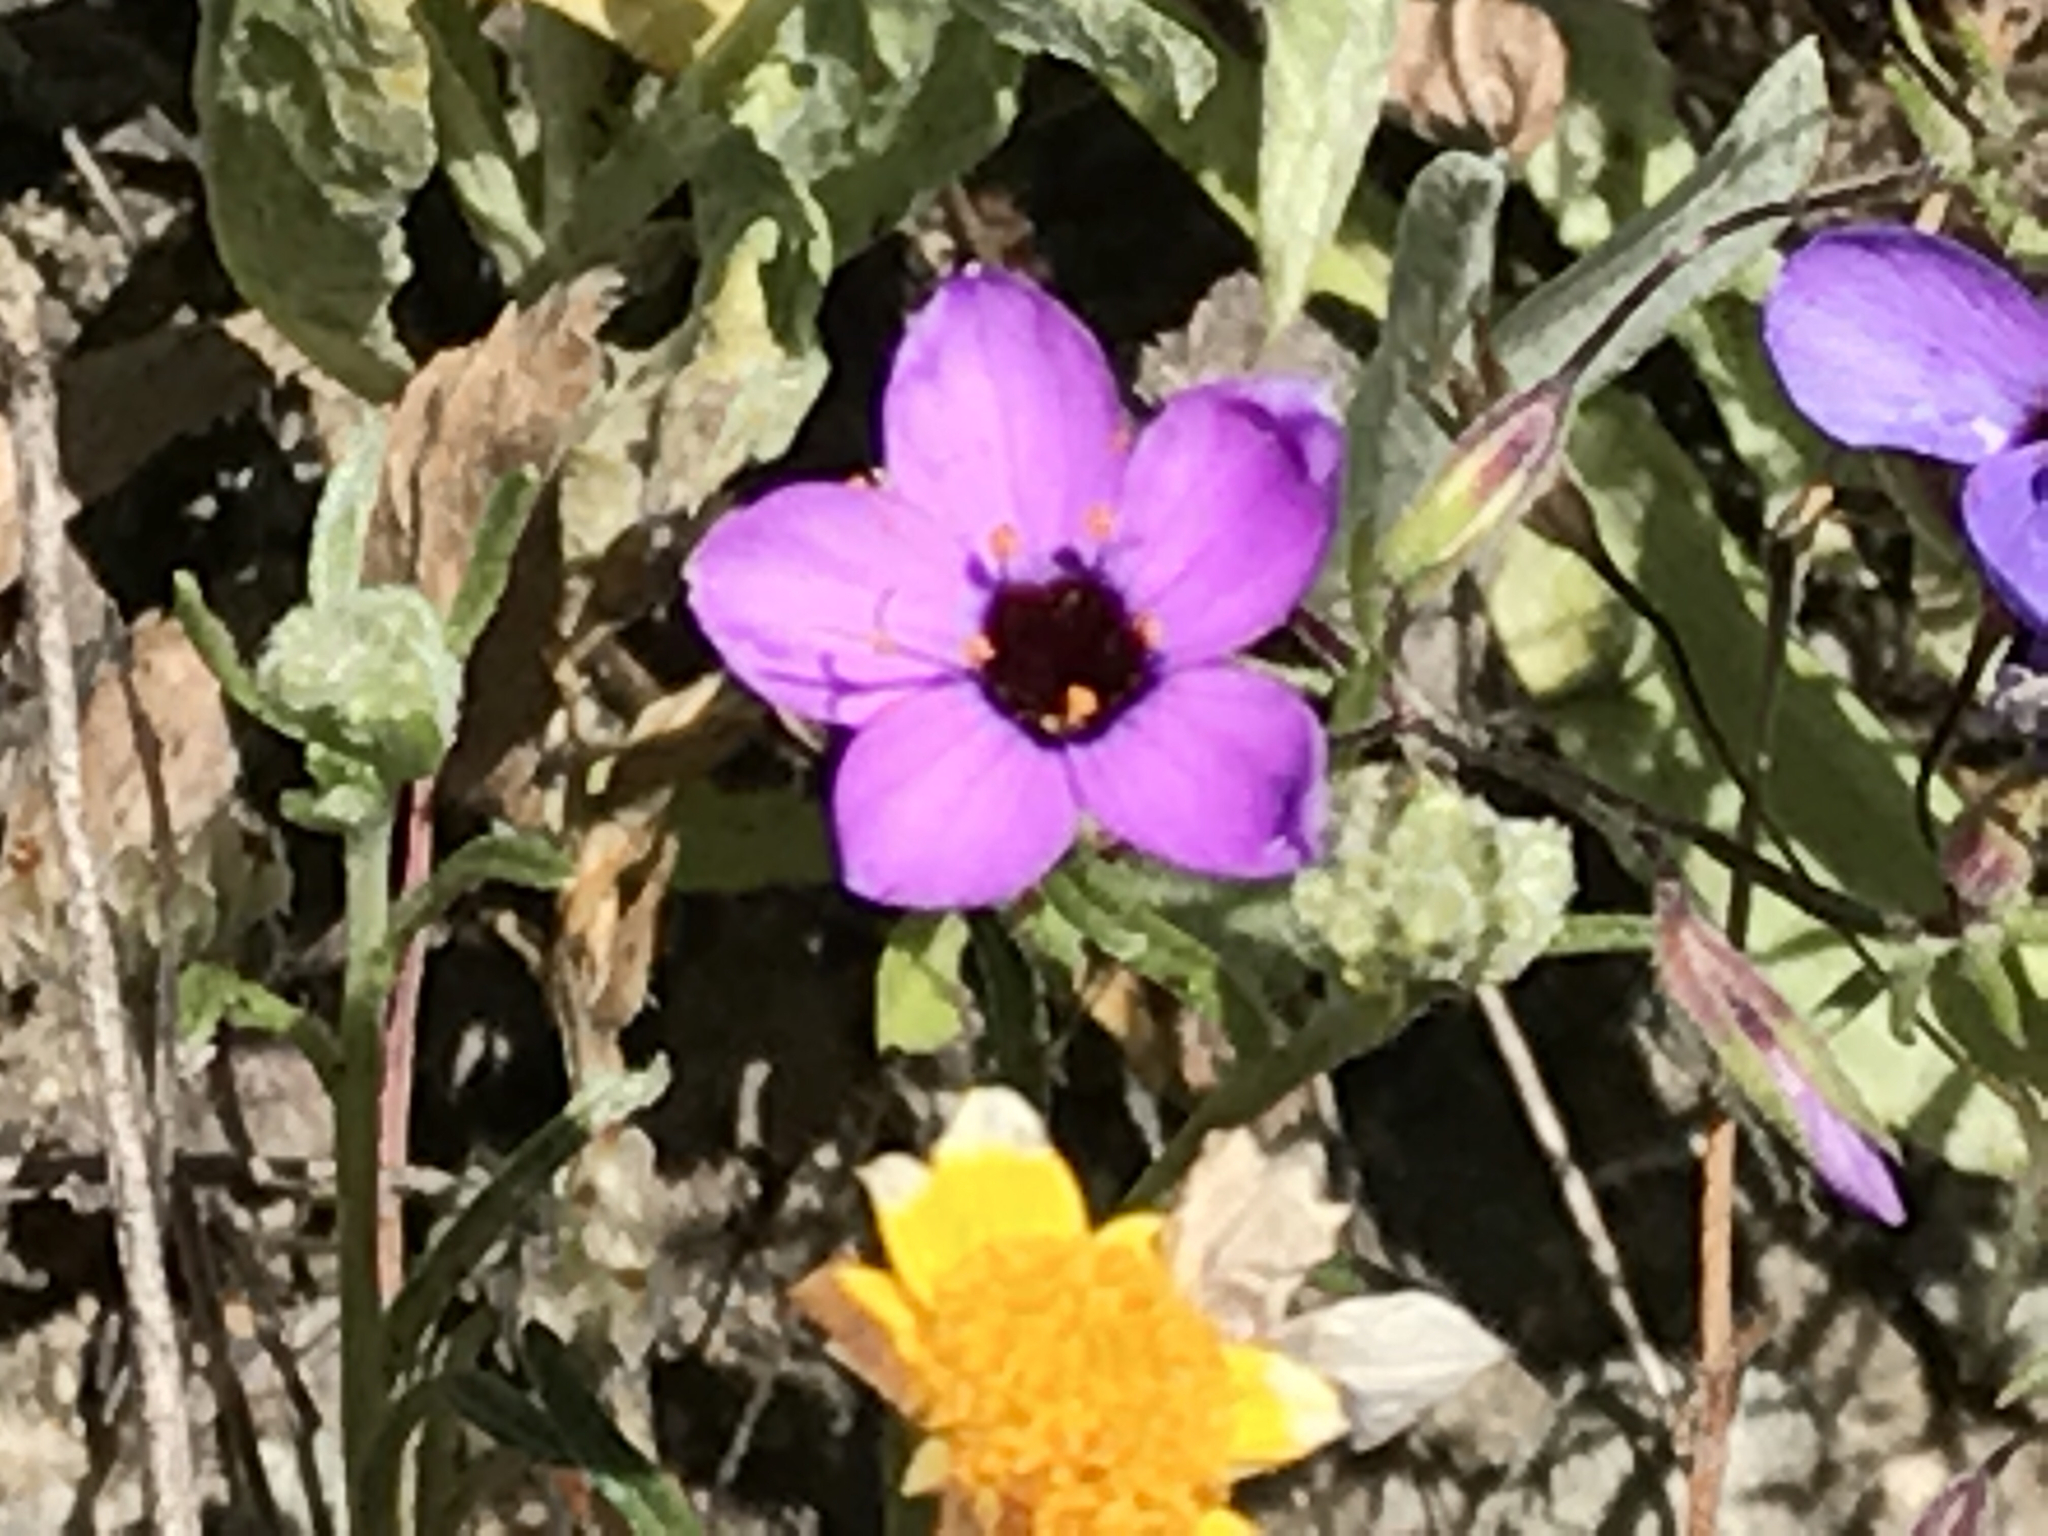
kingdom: Plantae
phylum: Tracheophyta
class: Magnoliopsida
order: Ericales
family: Polemoniaceae
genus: Leptosiphon
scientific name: Leptosiphon ambiguus
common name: Serpentine linanthus
